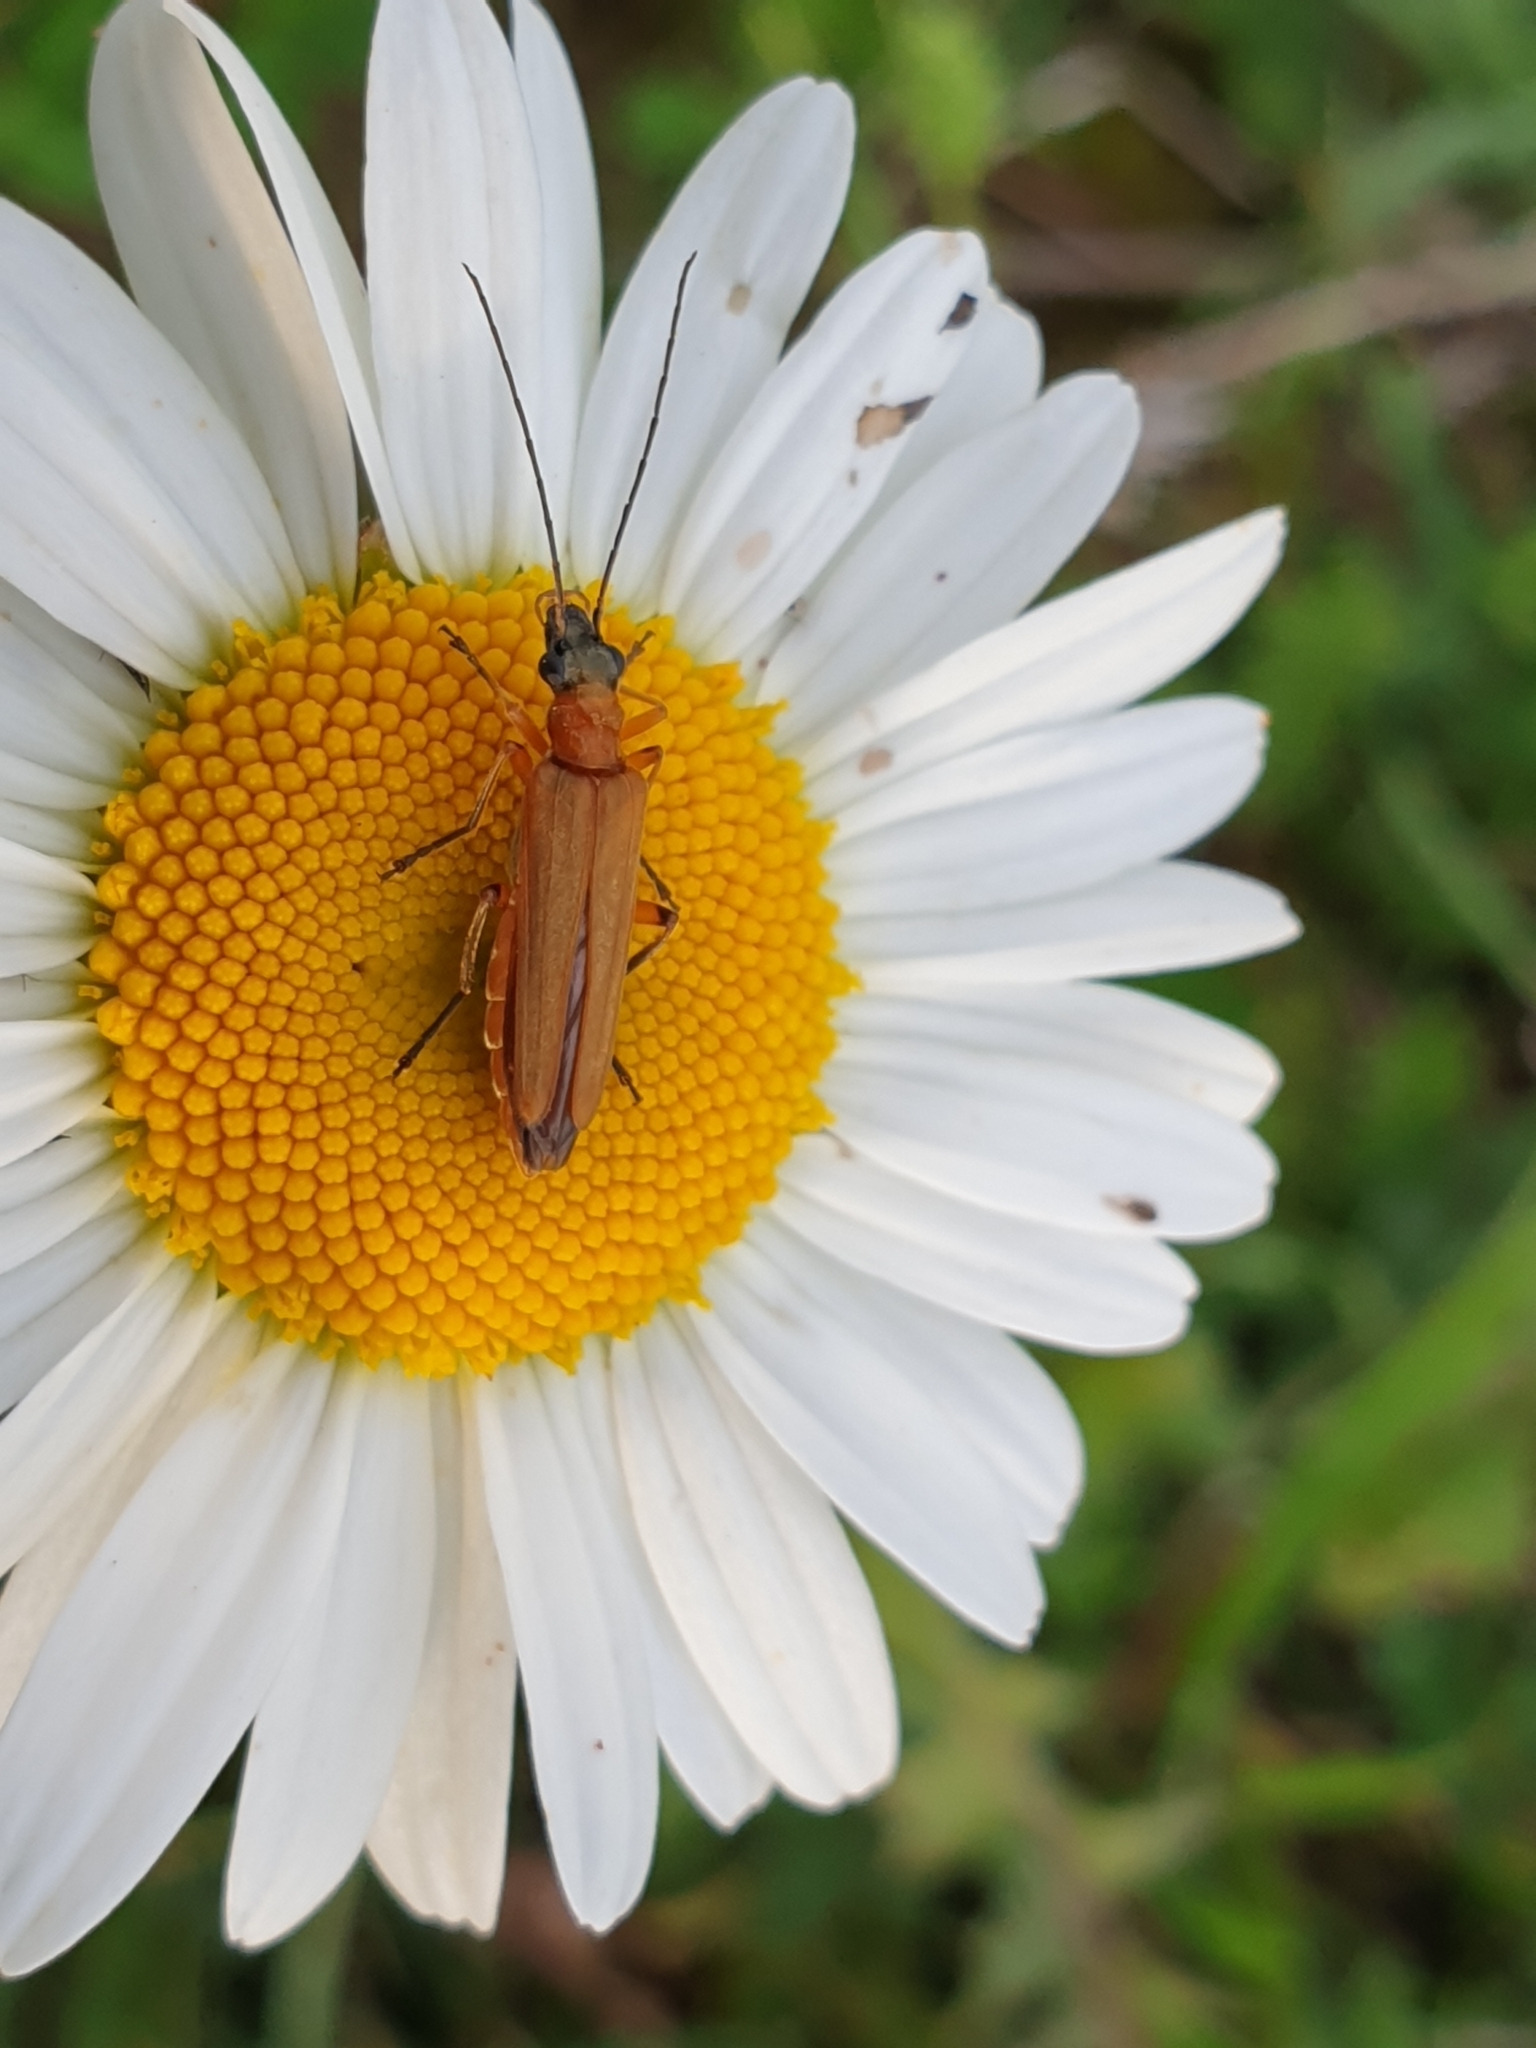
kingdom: Animalia
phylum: Arthropoda
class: Insecta
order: Coleoptera
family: Oedemeridae
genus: Oedemera
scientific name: Oedemera podagrariae
